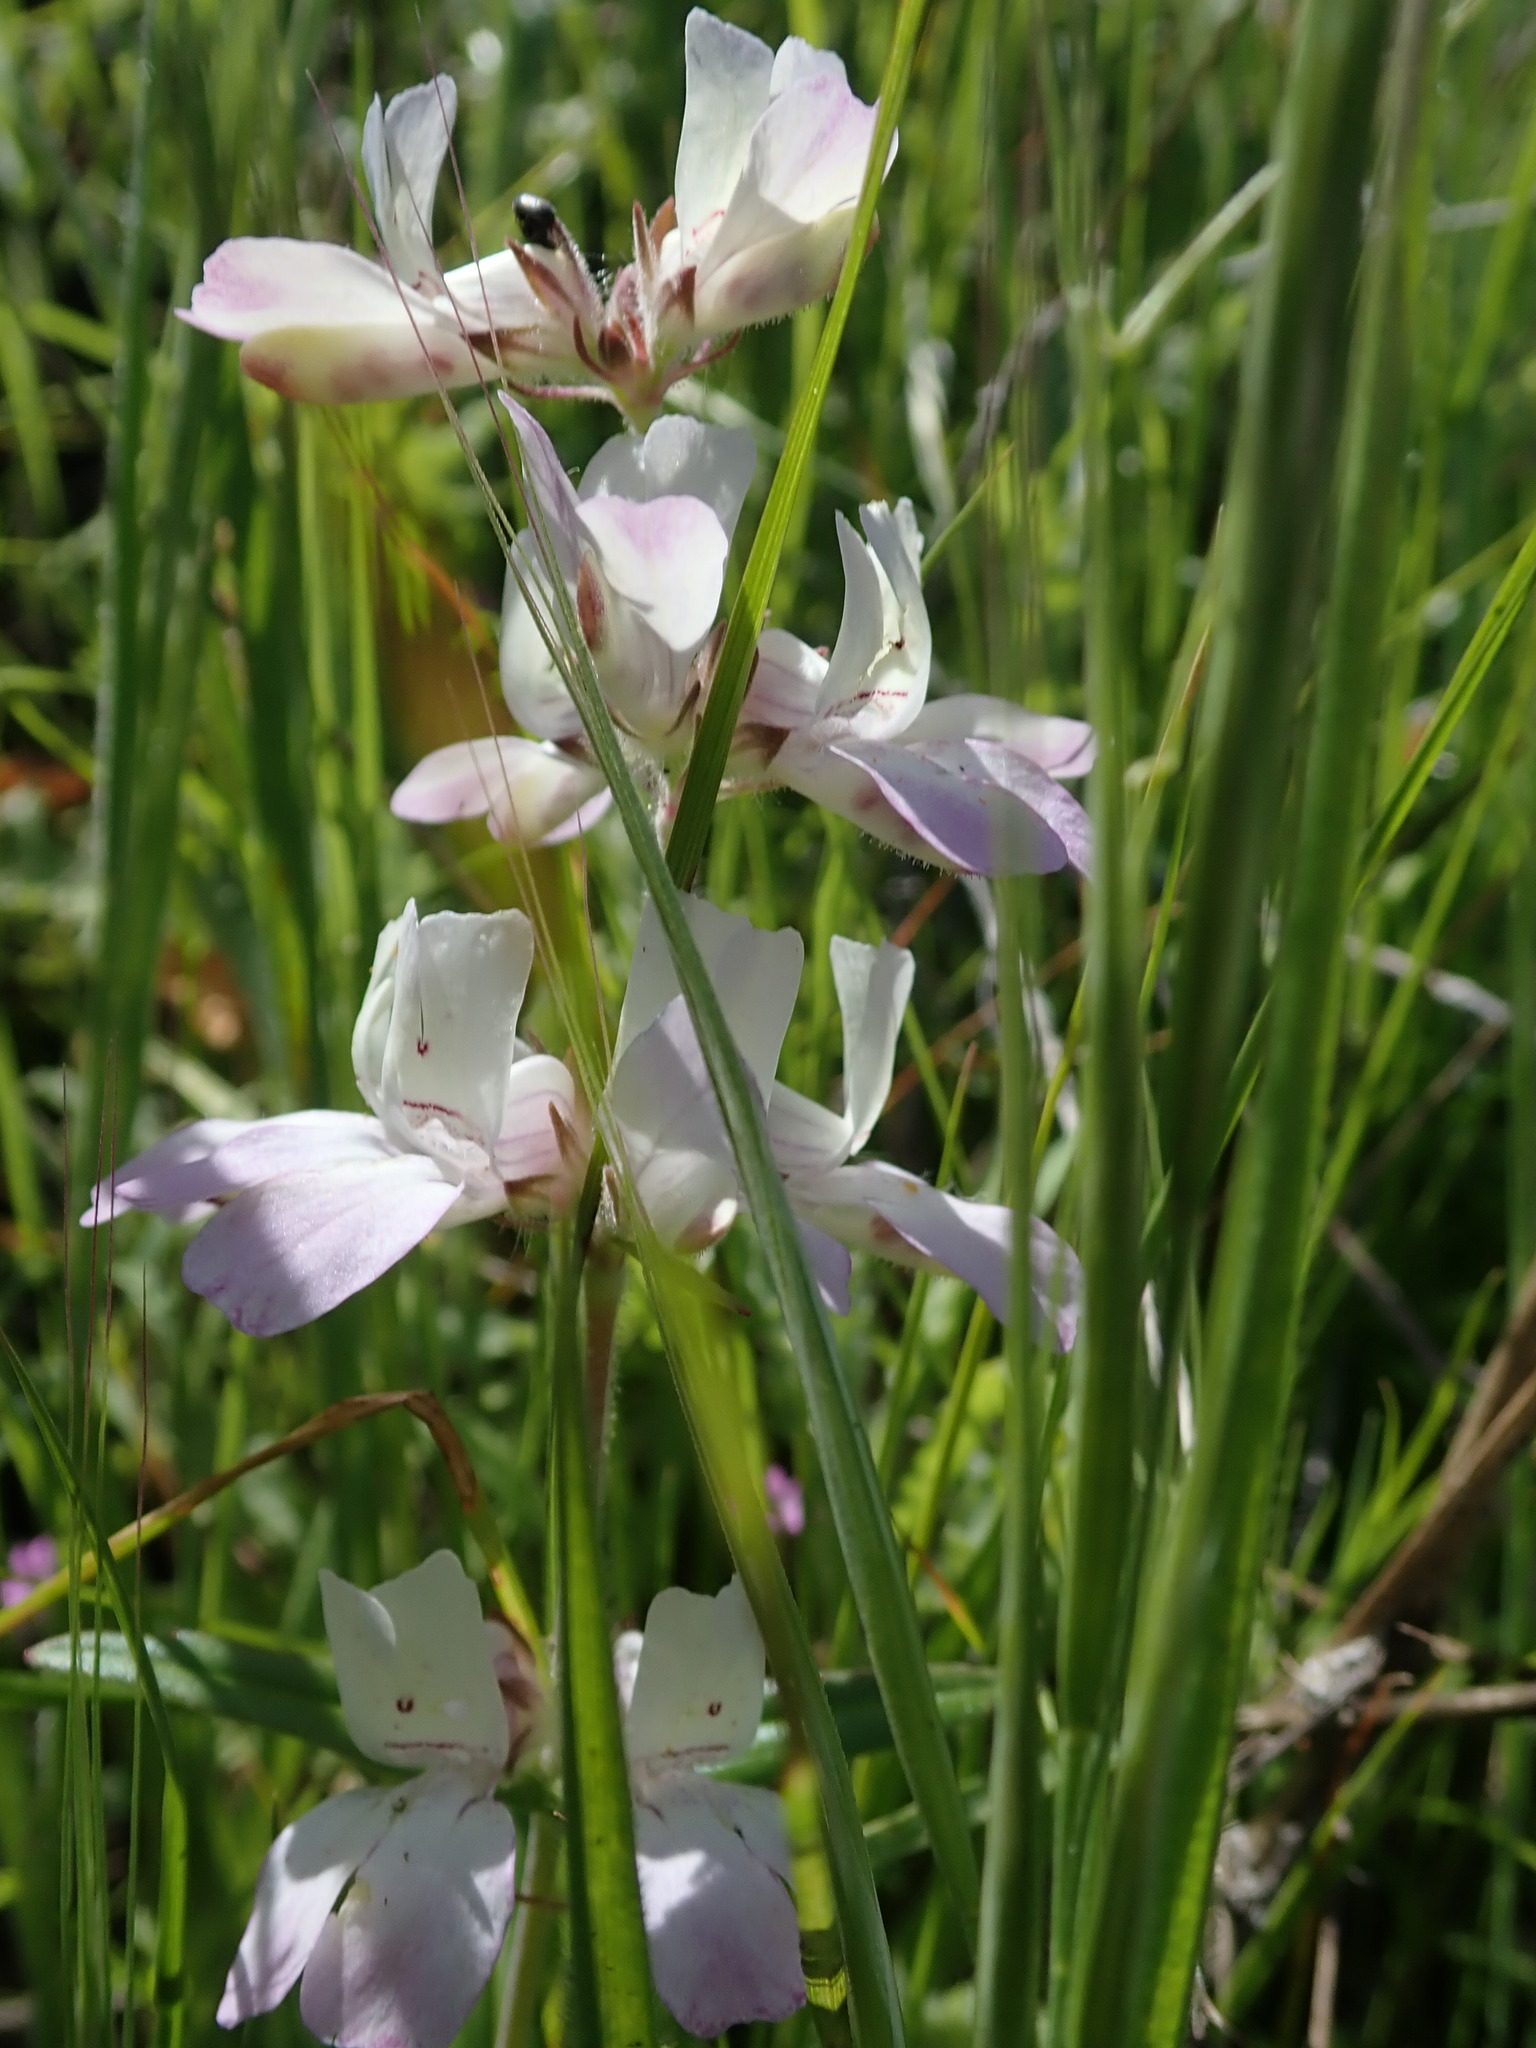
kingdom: Plantae
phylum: Tracheophyta
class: Magnoliopsida
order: Lamiales
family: Plantaginaceae
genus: Collinsia
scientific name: Collinsia heterophylla
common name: Chinese-houses
